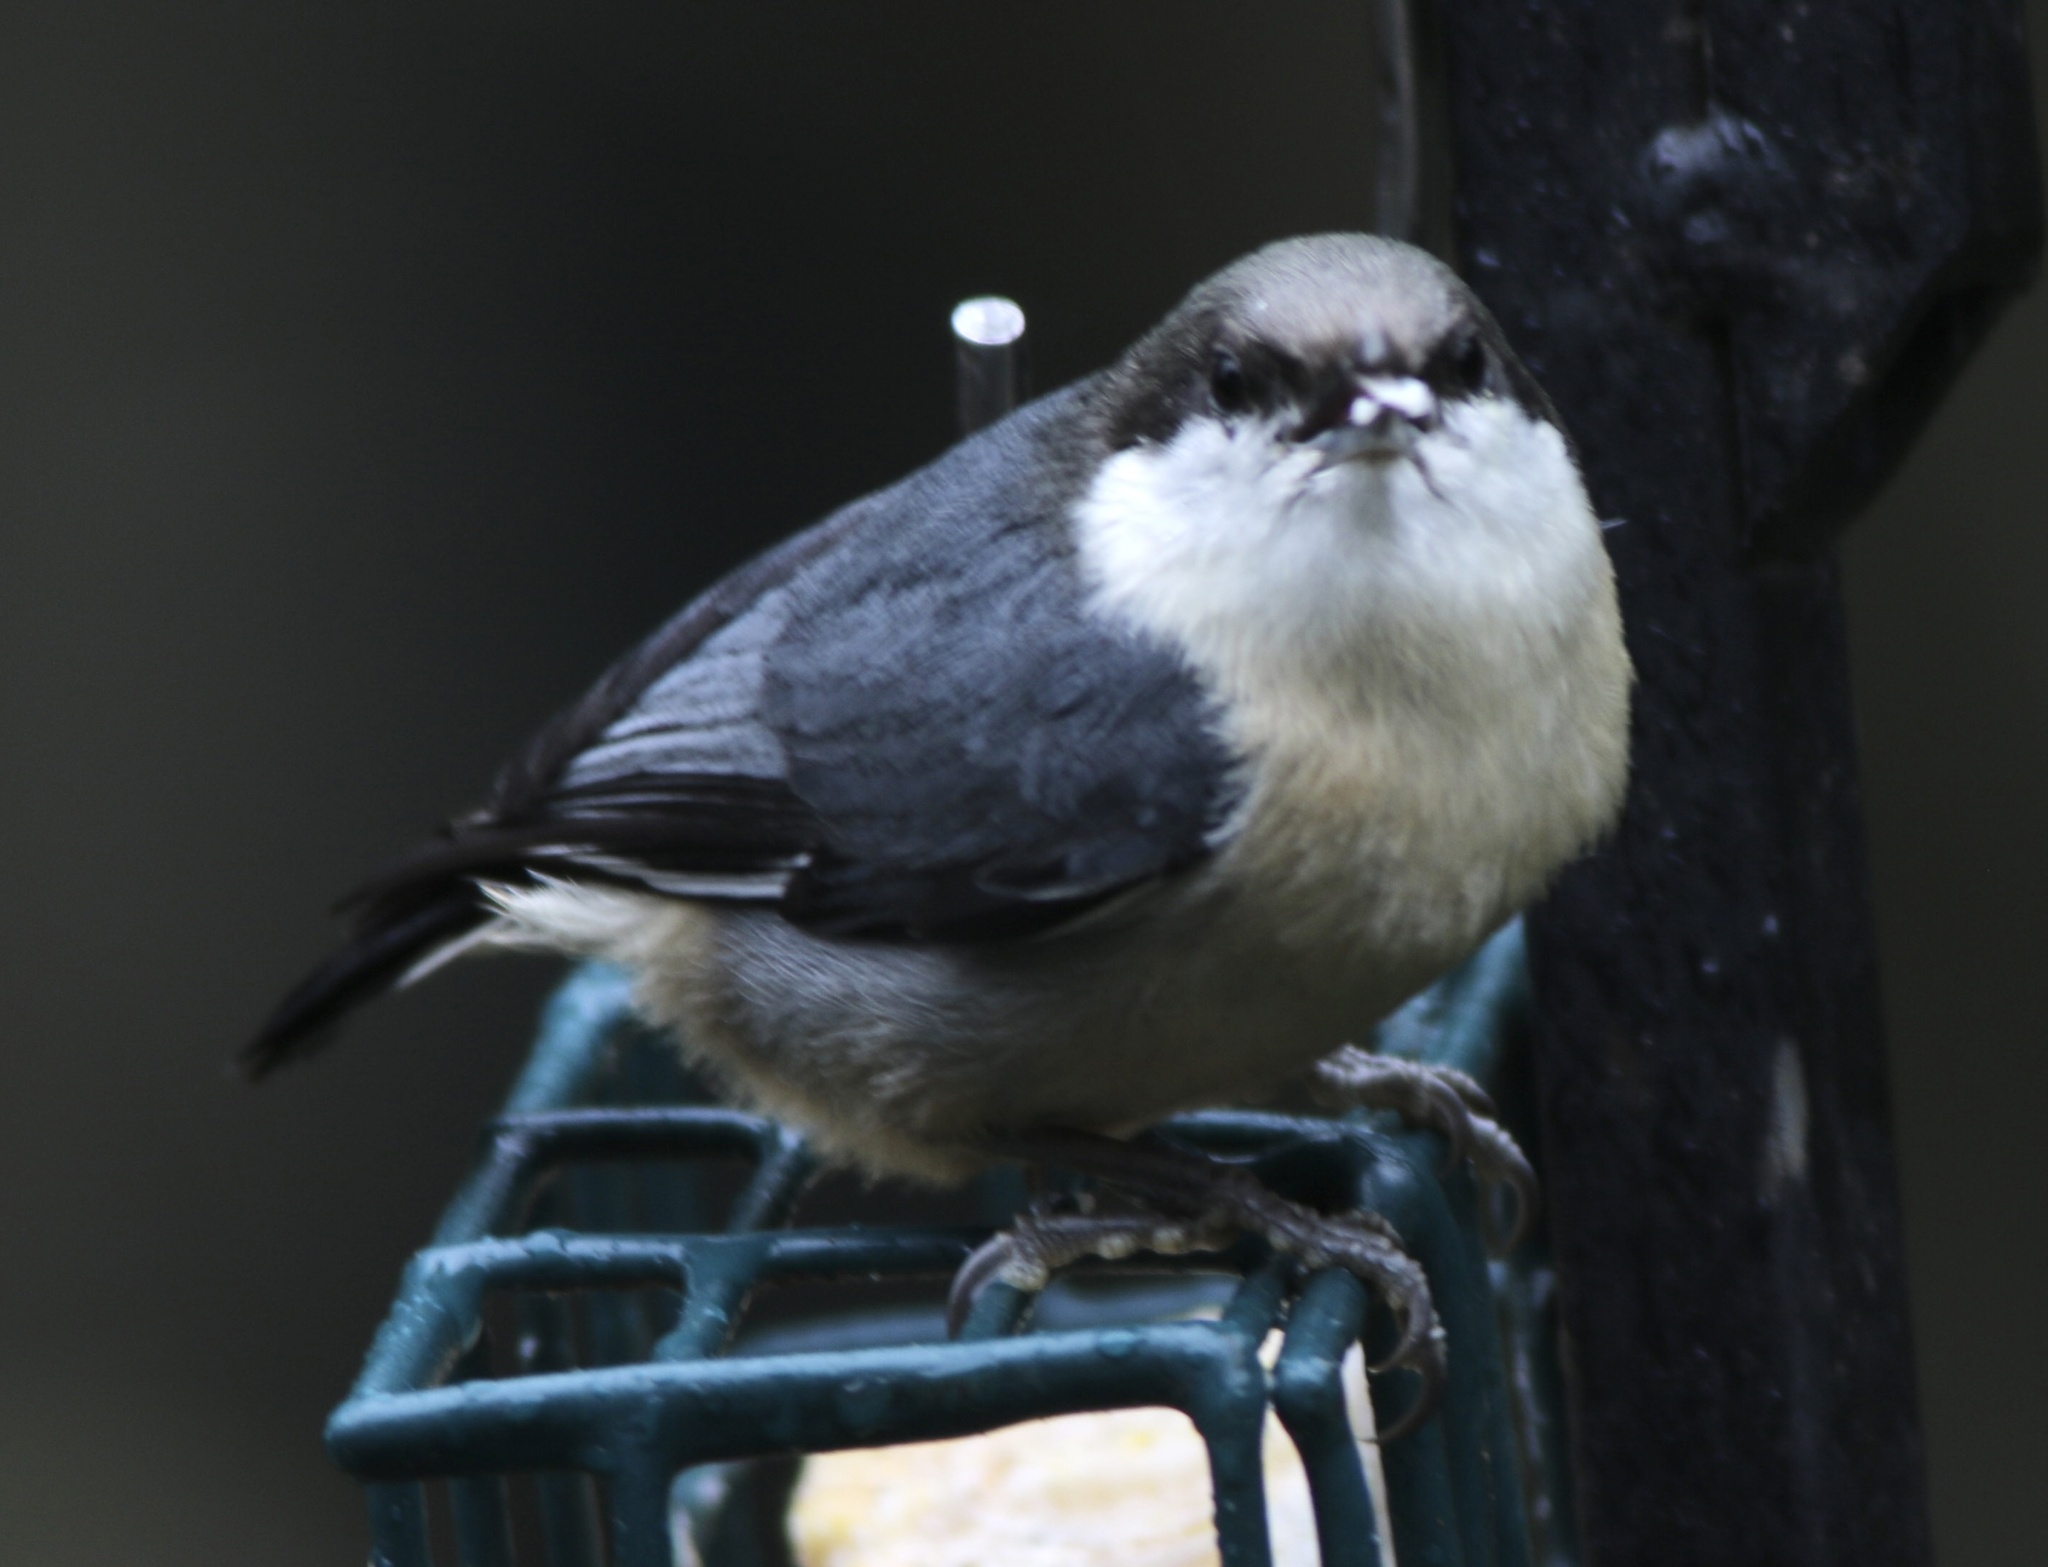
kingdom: Animalia
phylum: Chordata
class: Aves
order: Passeriformes
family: Sittidae
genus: Sitta
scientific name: Sitta pygmaea
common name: Pygmy nuthatch
